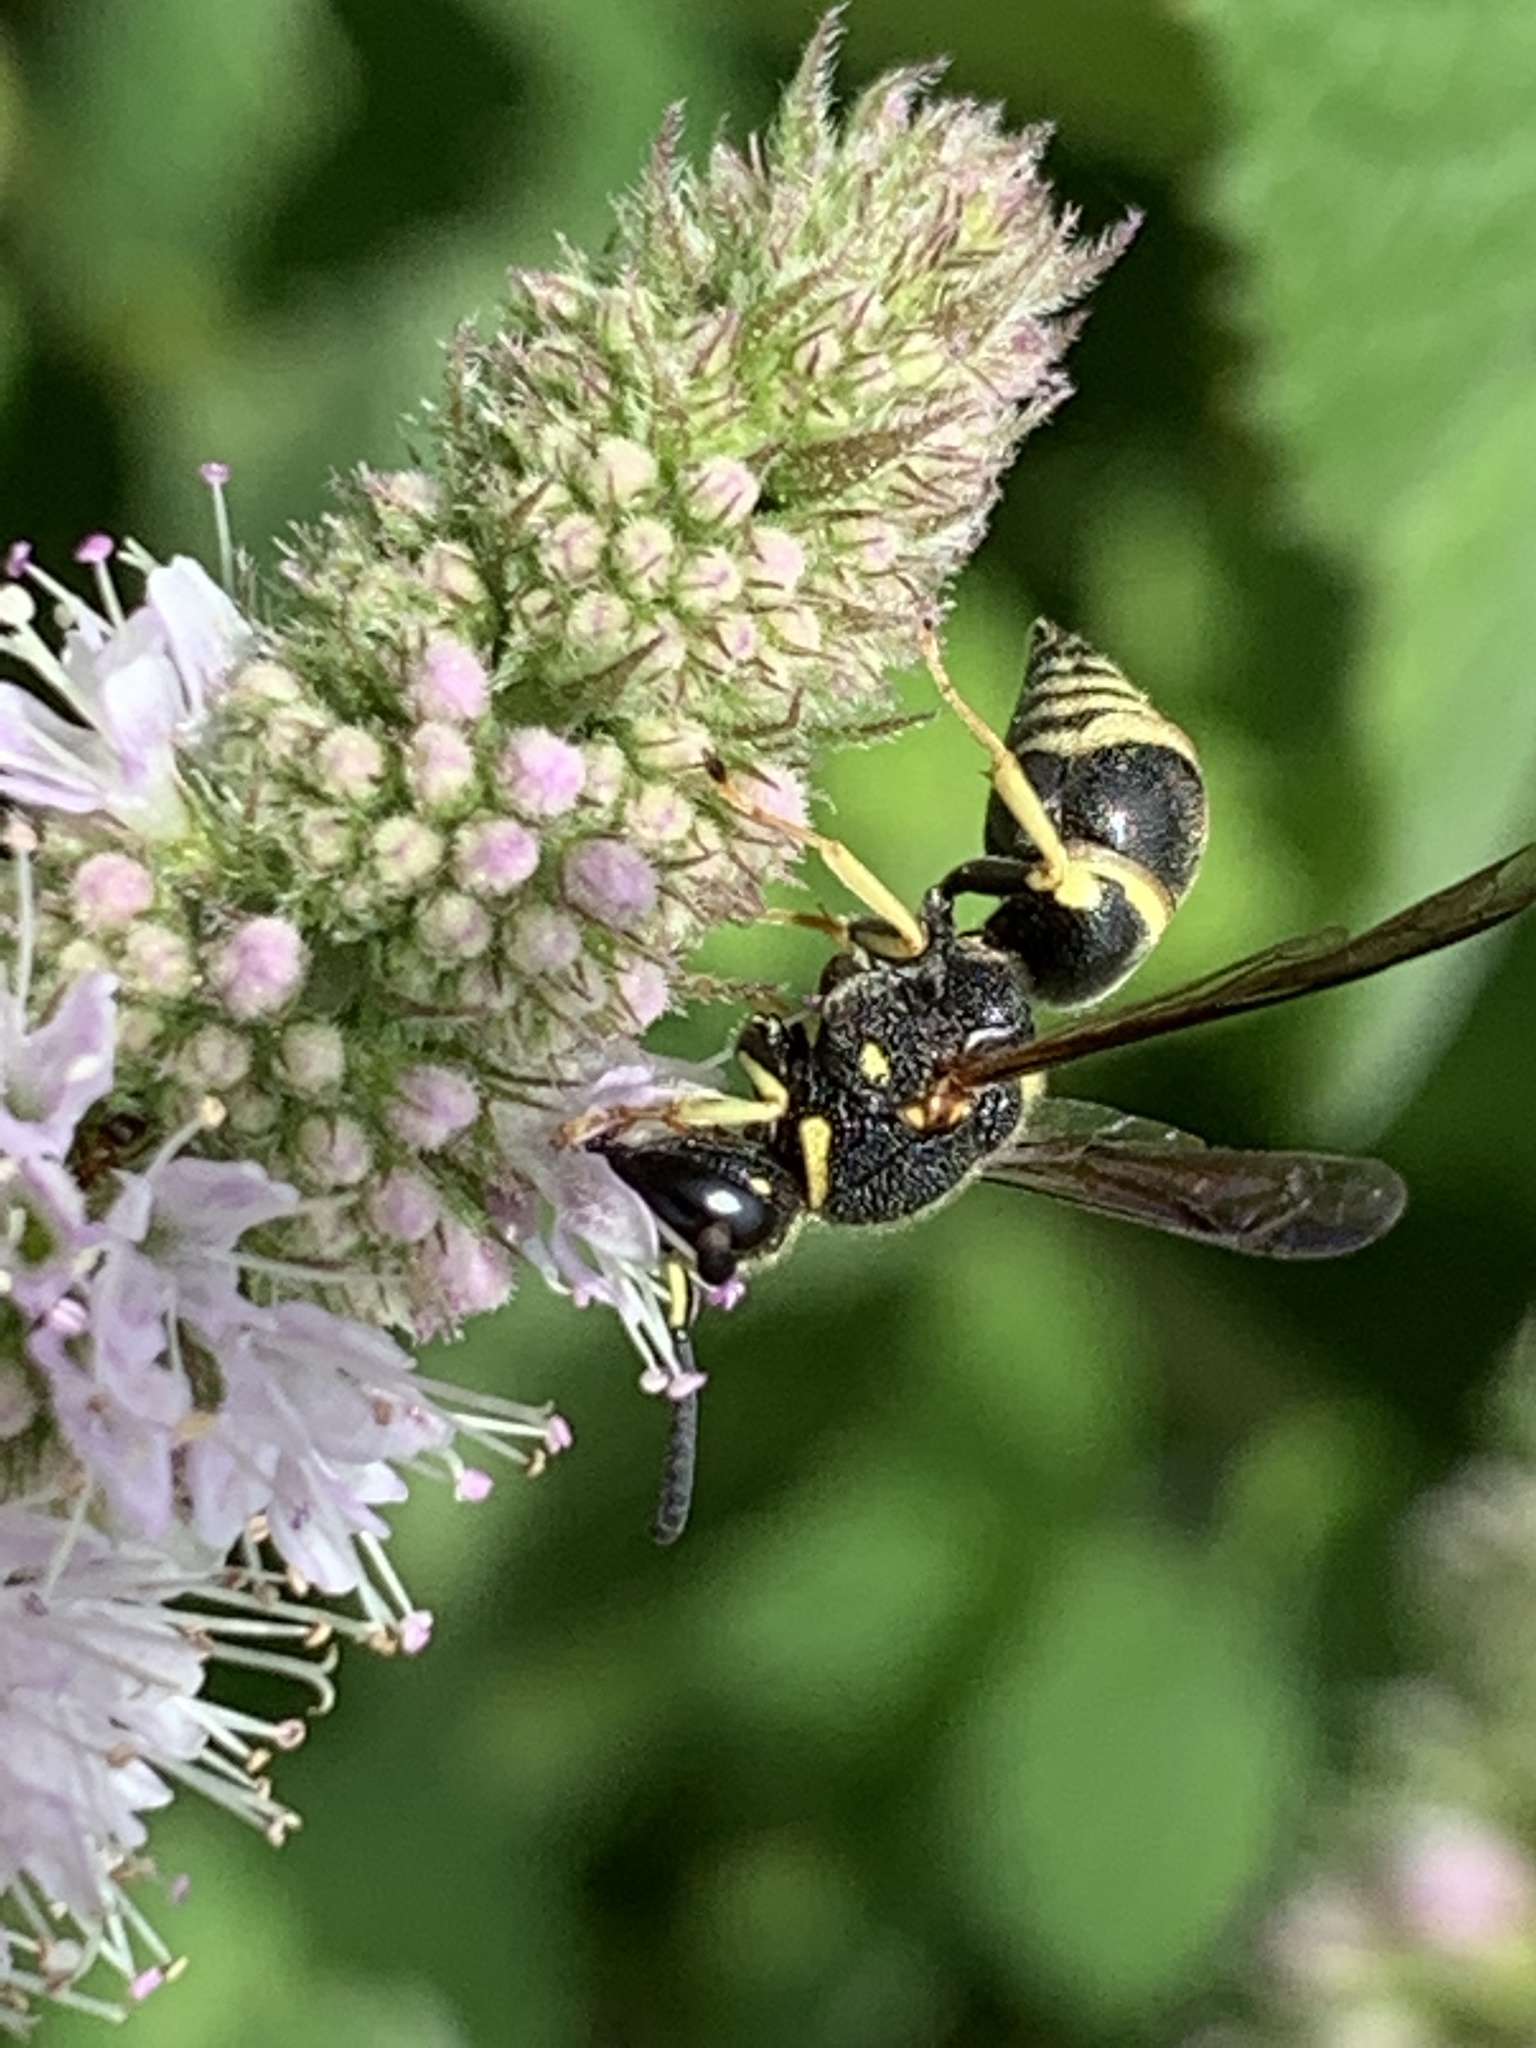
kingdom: Animalia
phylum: Arthropoda
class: Insecta
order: Hymenoptera
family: Eumenidae
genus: Euodynerus
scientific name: Euodynerus foraminatus
